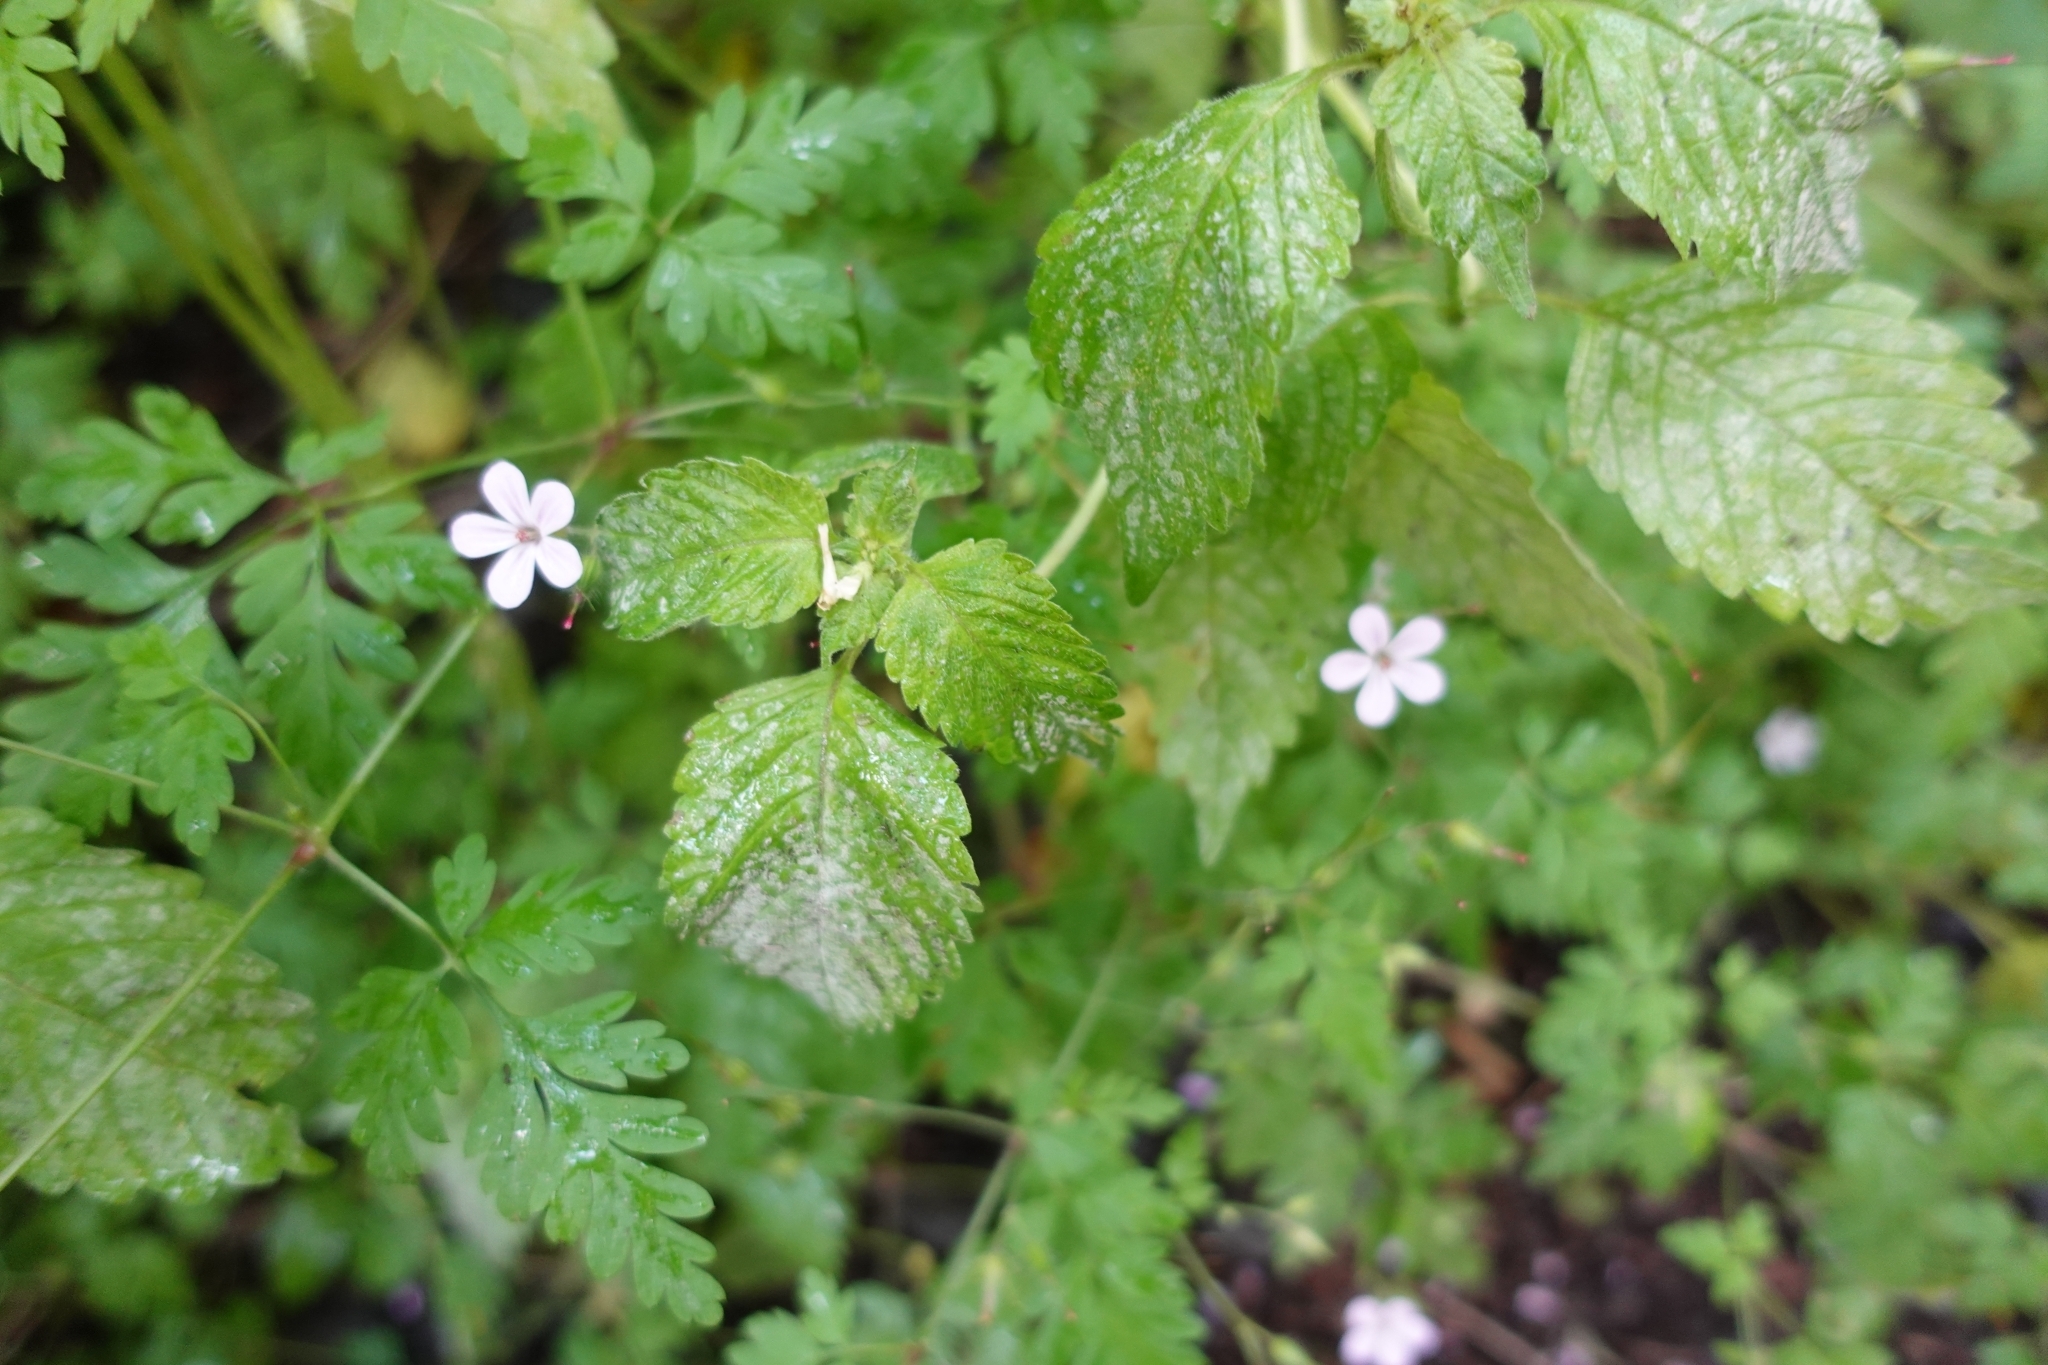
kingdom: Plantae
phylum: Tracheophyta
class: Magnoliopsida
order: Geraniales
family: Geraniaceae
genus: Geranium
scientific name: Geranium robertianum
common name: Herb-robert
